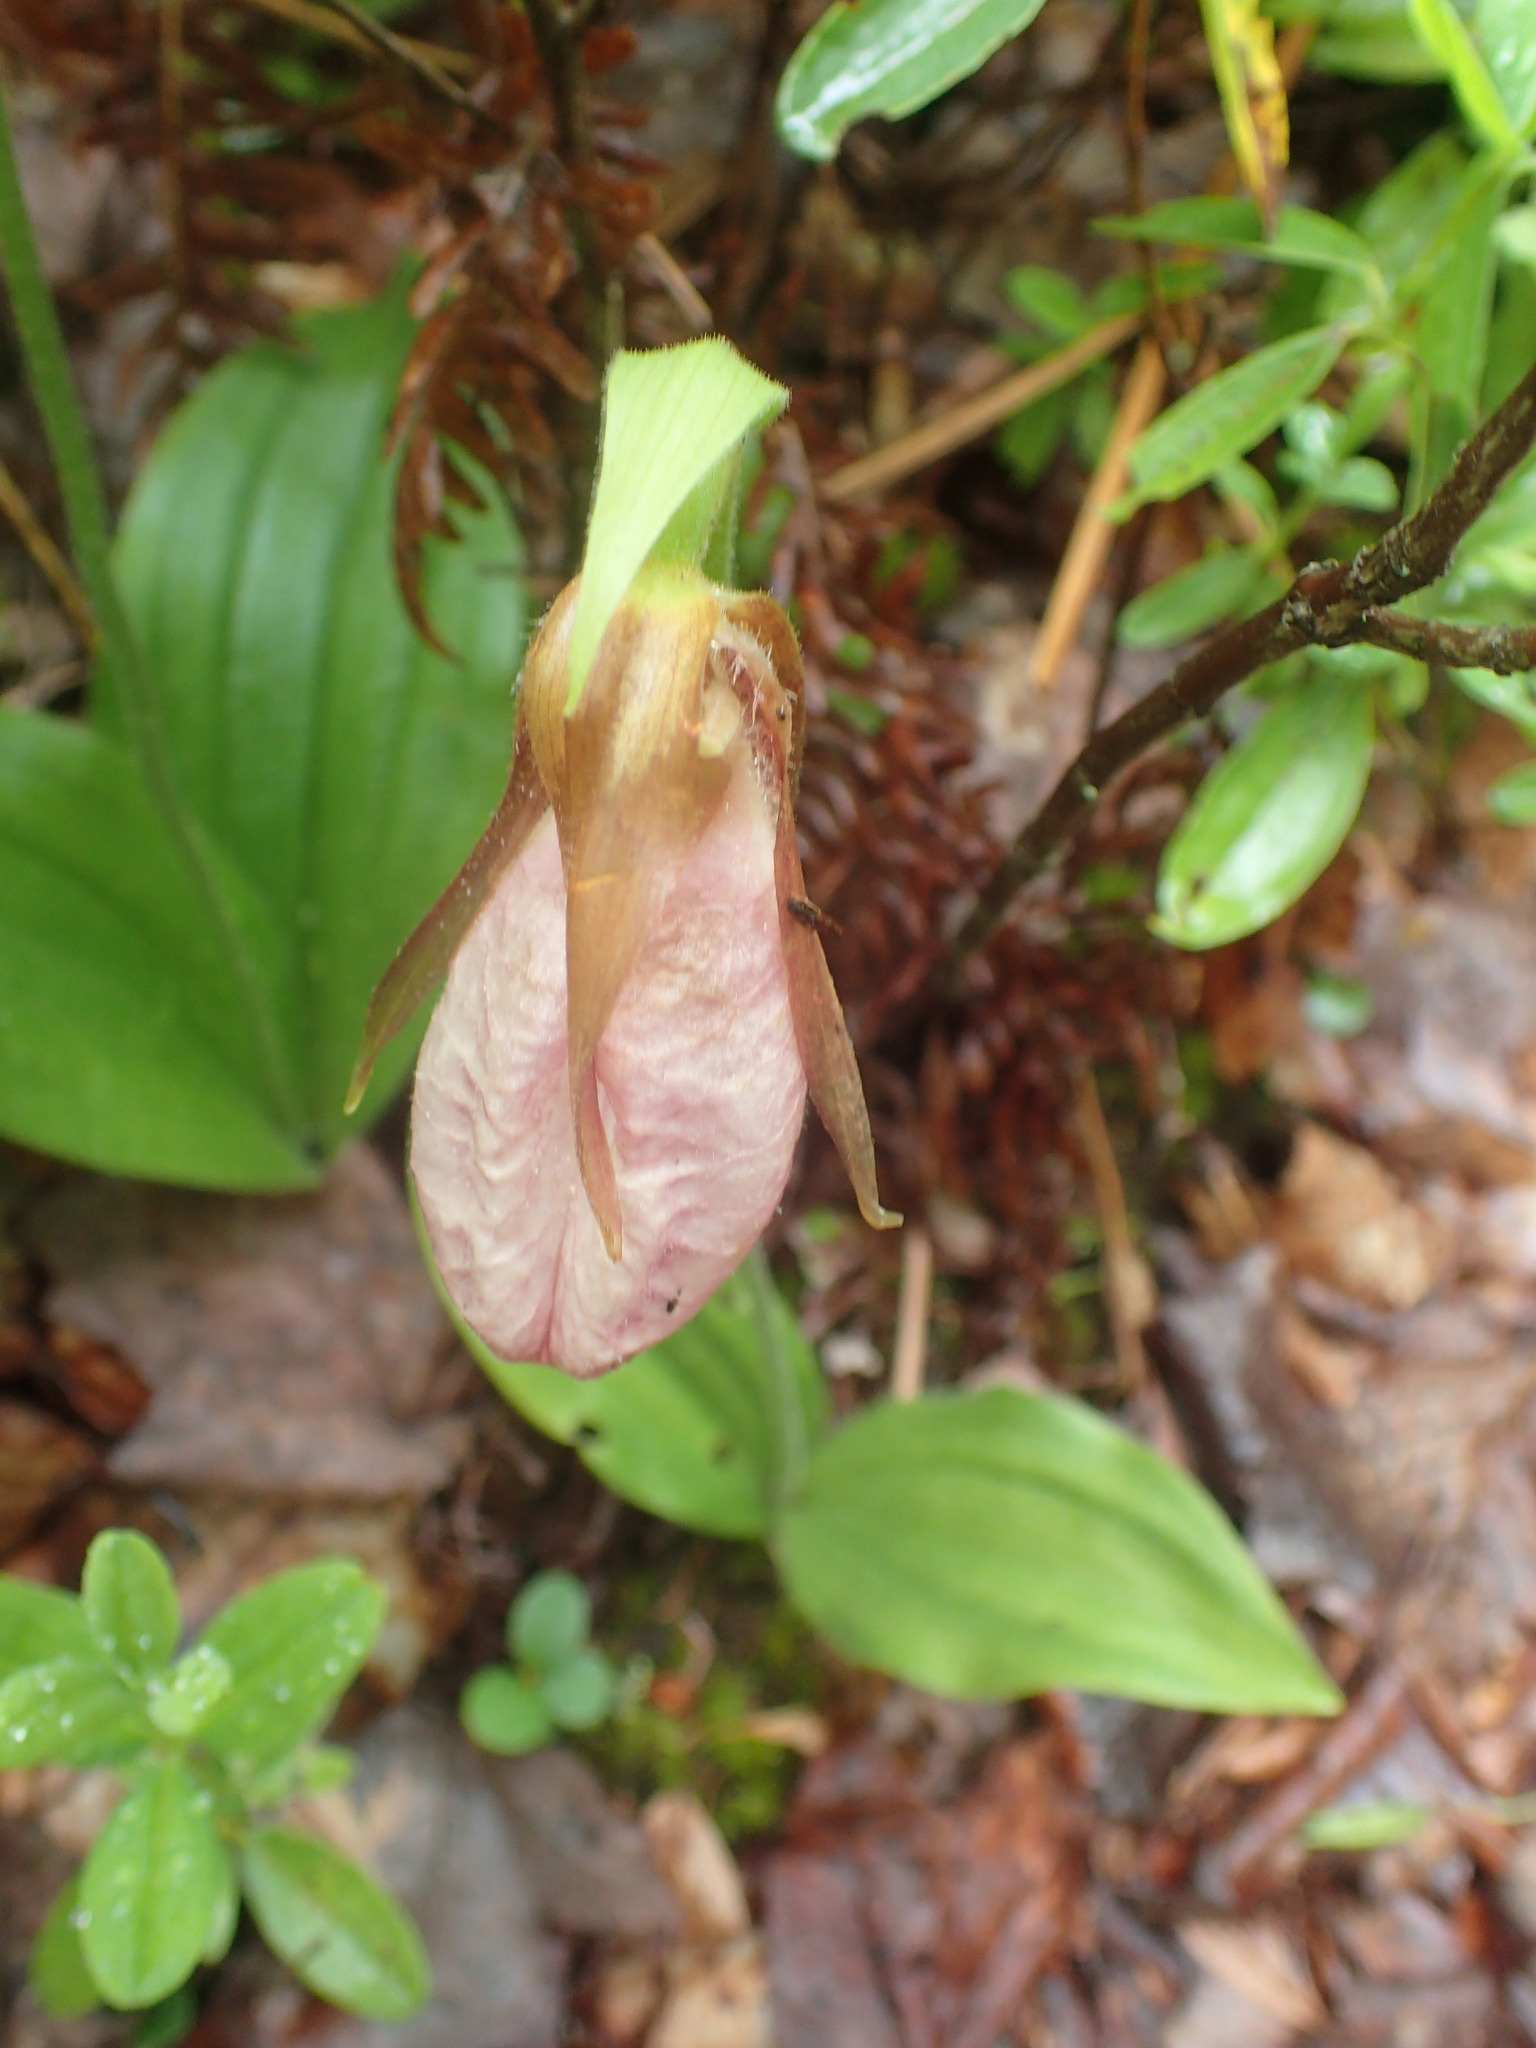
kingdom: Plantae
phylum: Tracheophyta
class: Liliopsida
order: Asparagales
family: Orchidaceae
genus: Cypripedium
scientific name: Cypripedium acaule
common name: Pink lady's-slipper
